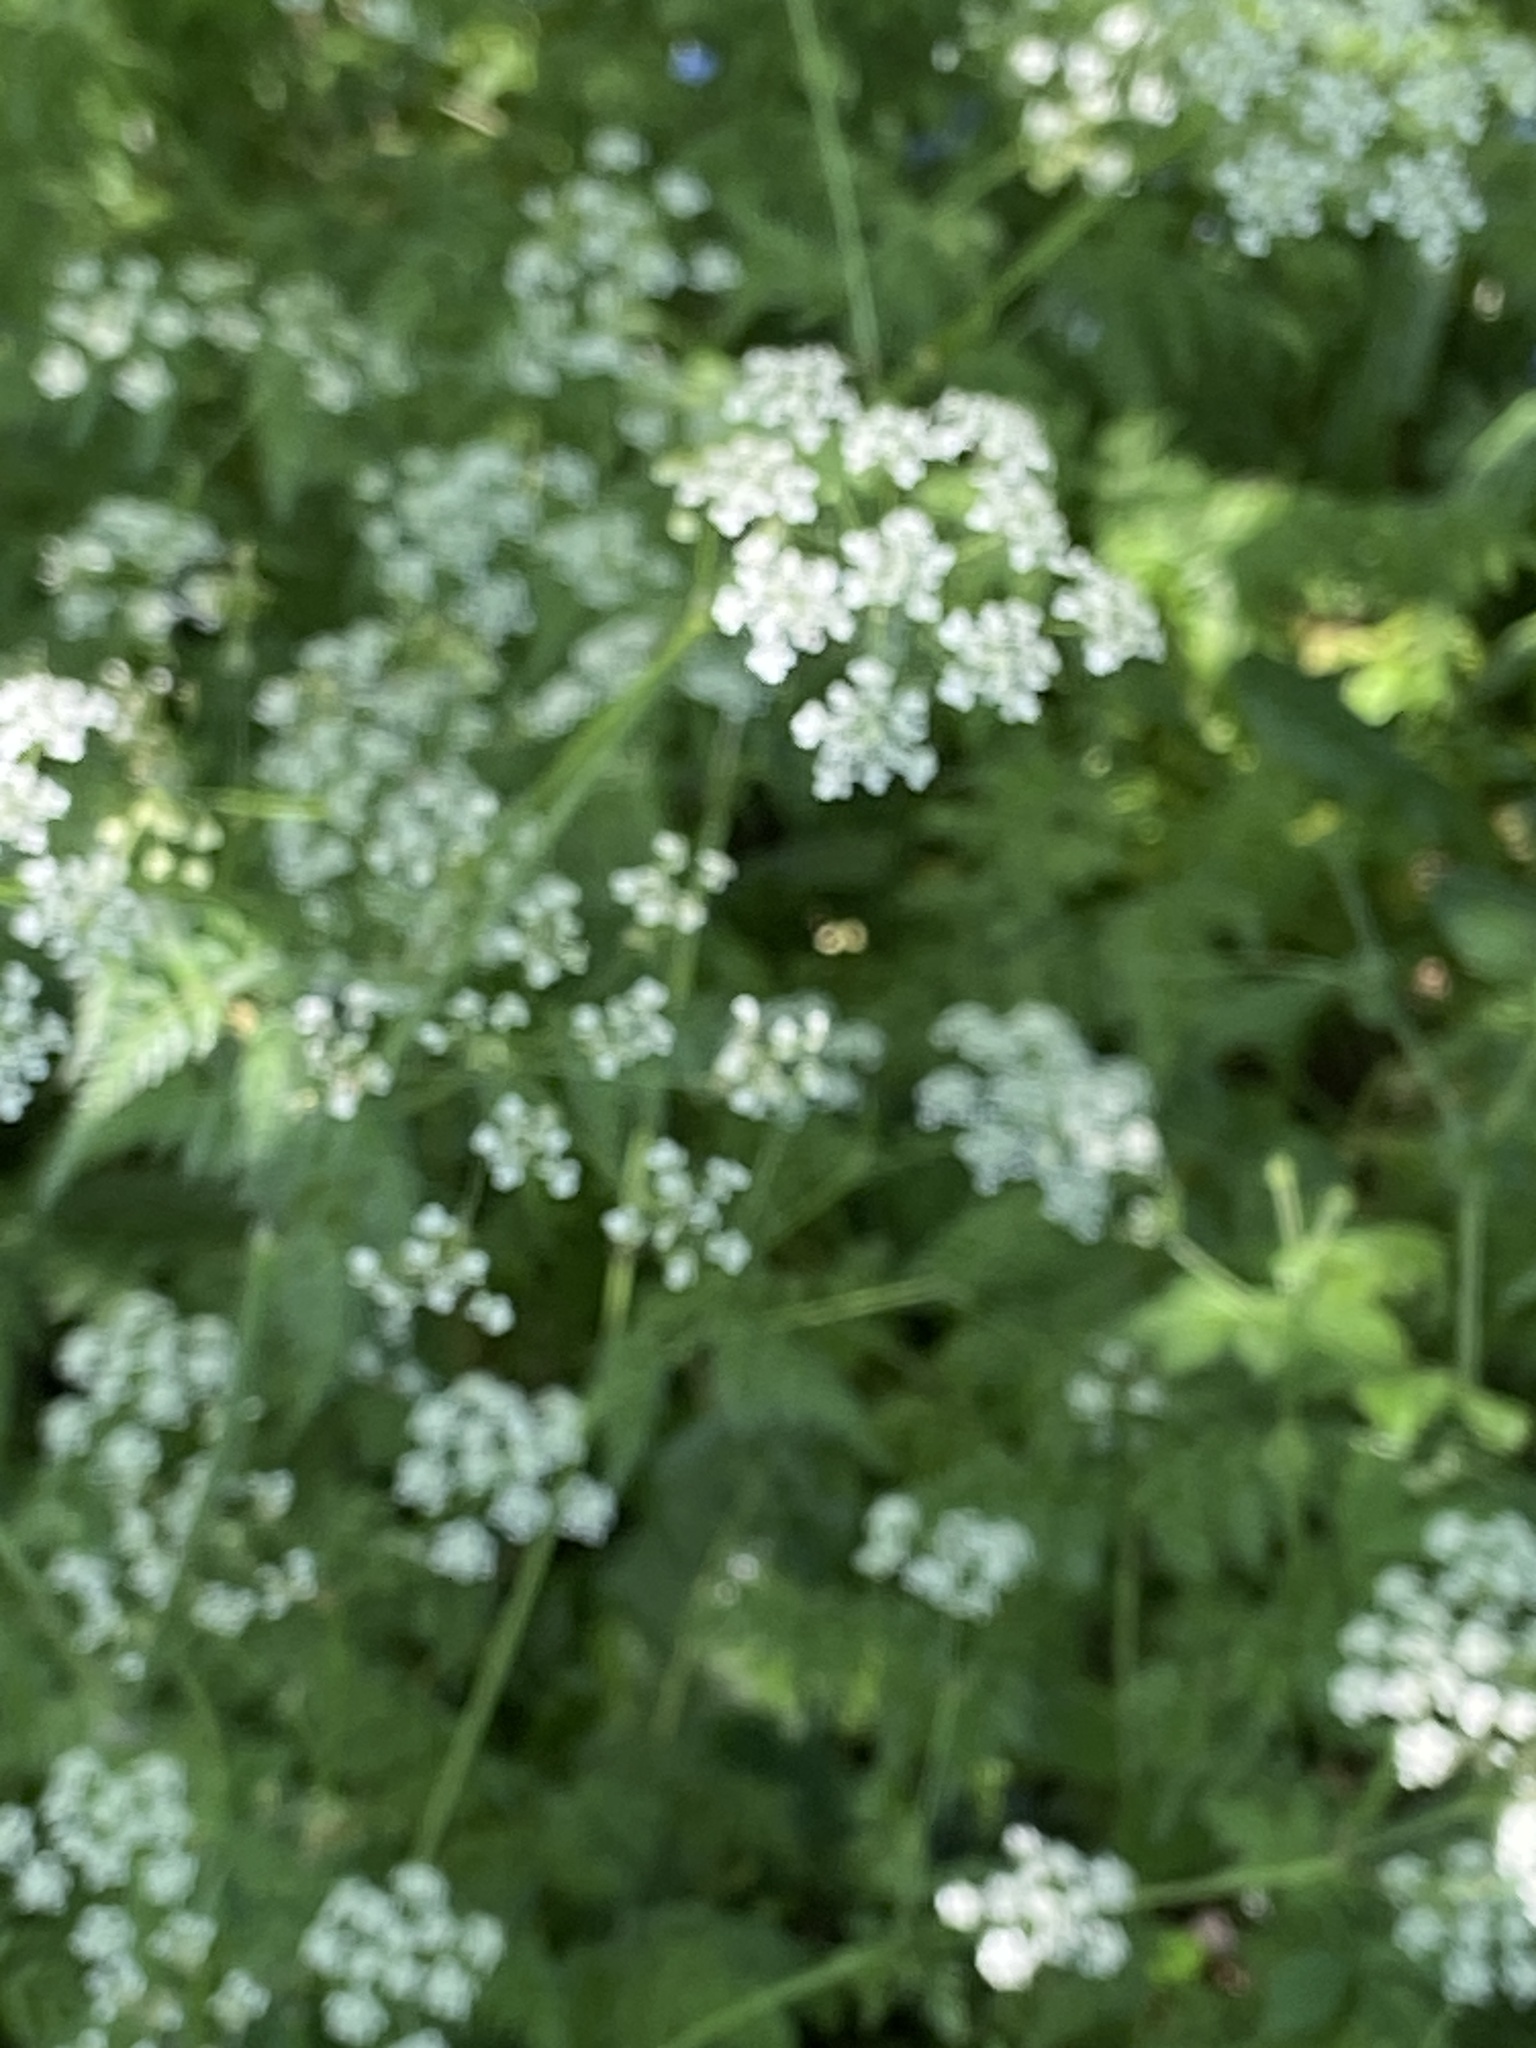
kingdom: Plantae
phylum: Tracheophyta
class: Magnoliopsida
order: Apiales
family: Apiaceae
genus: Anthriscus
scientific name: Anthriscus sylvestris
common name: Cow parsley
